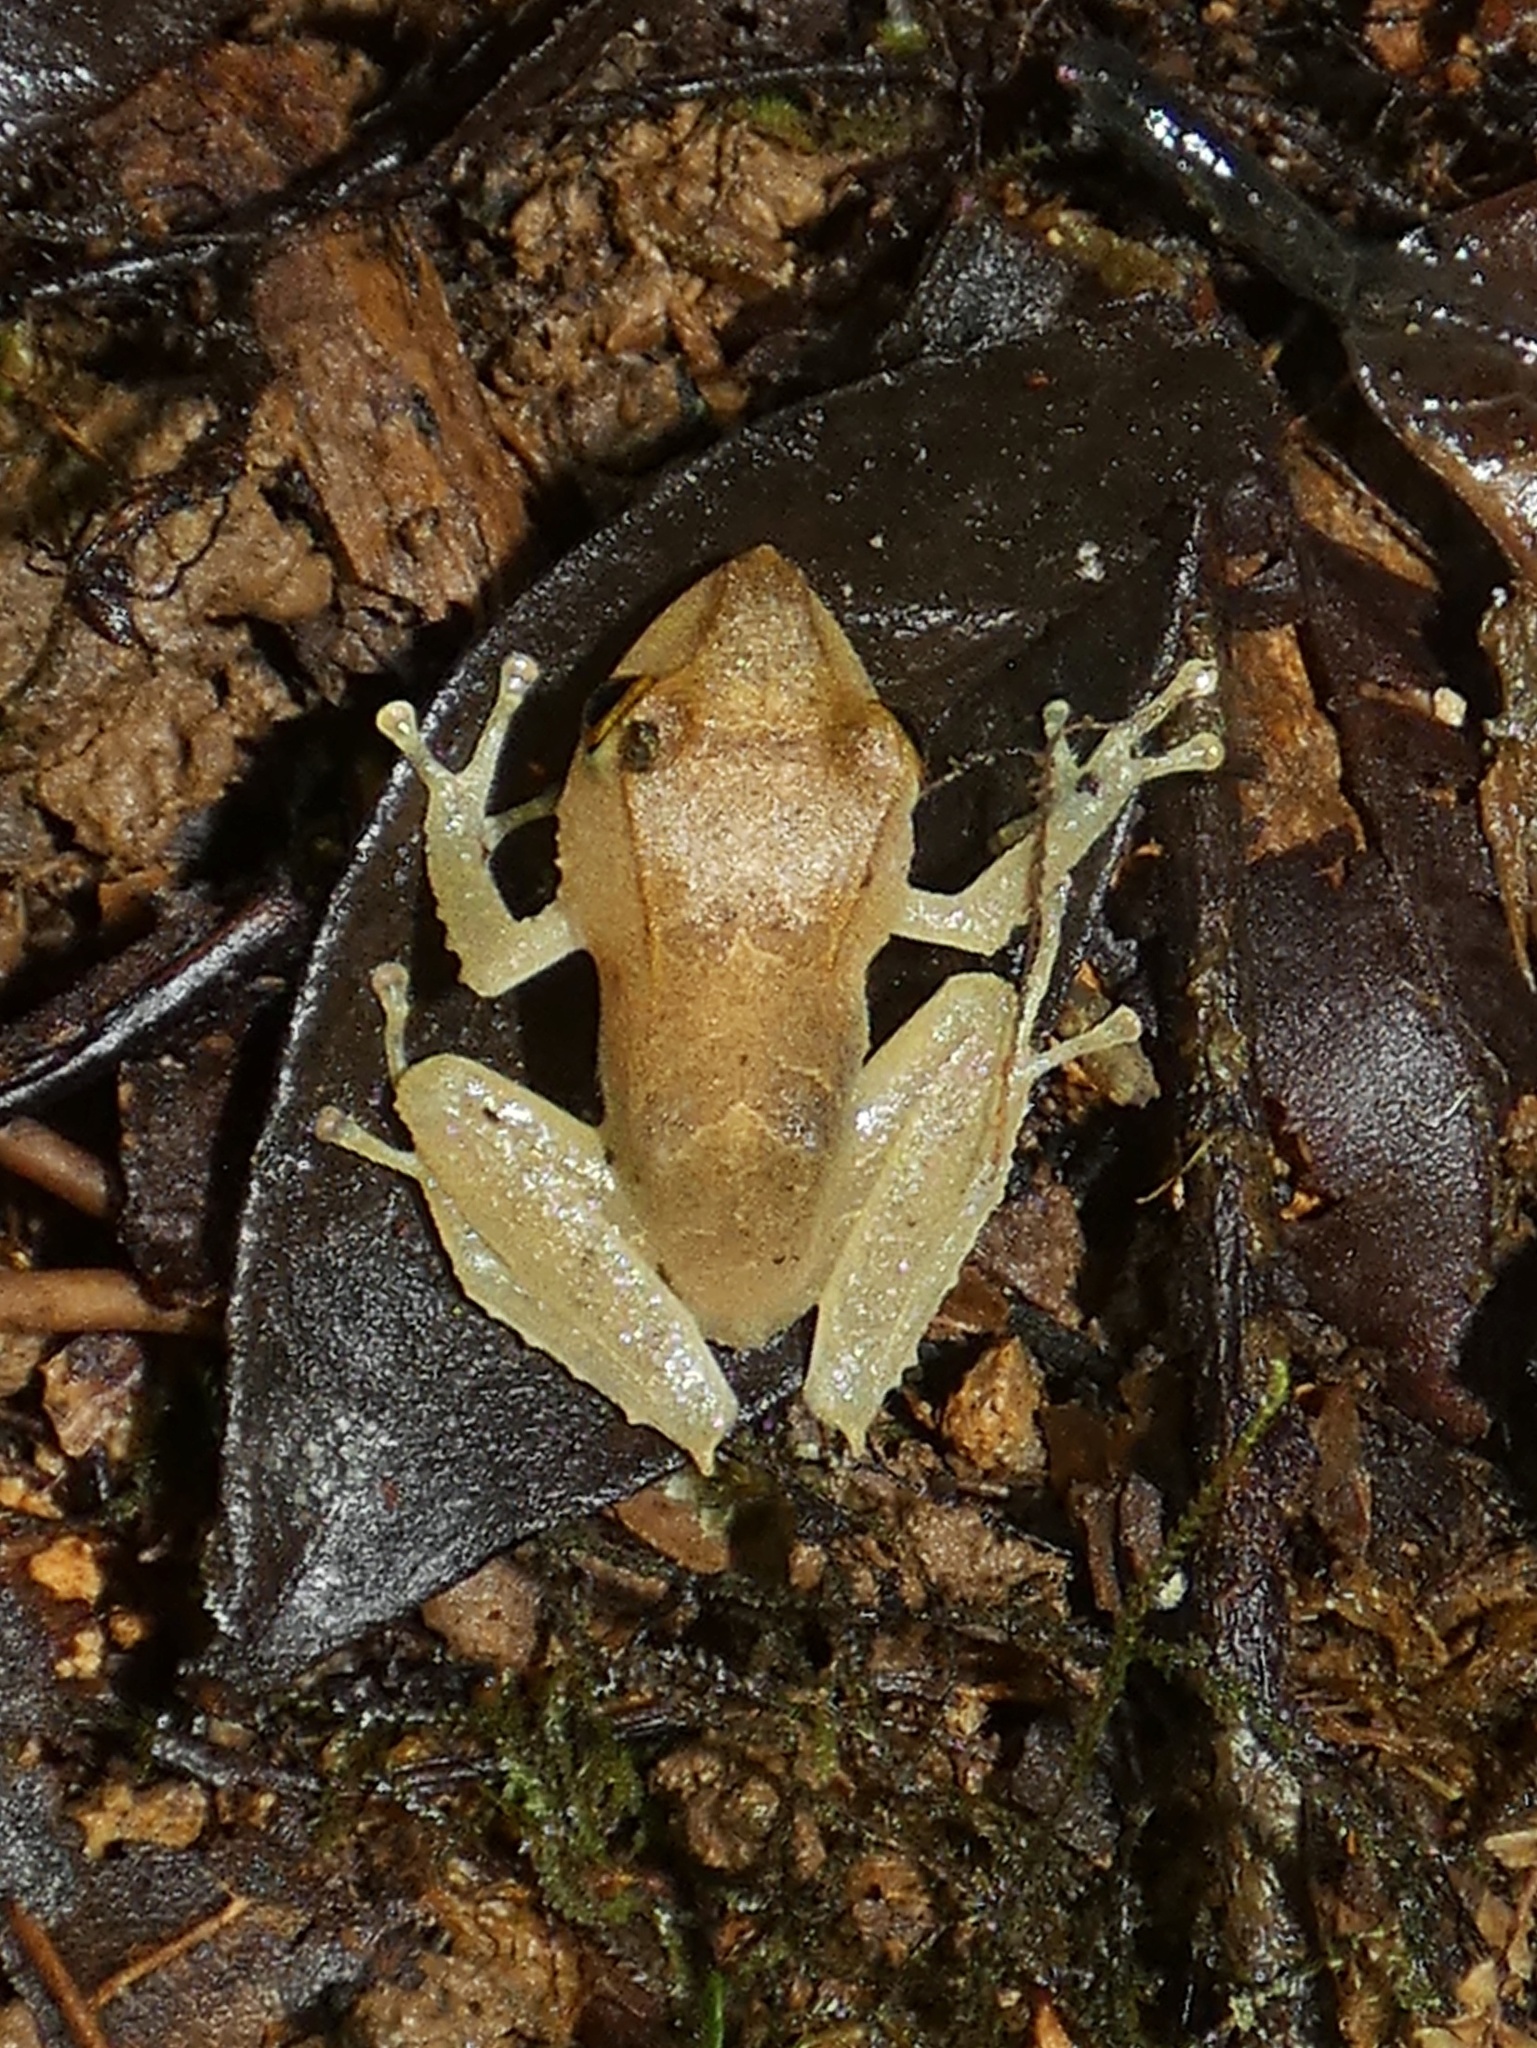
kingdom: Animalia
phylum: Chordata
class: Amphibia
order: Anura
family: Craugastoridae
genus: Pristimantis
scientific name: Pristimantis caryophyllaceus
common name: La loma robber frog
